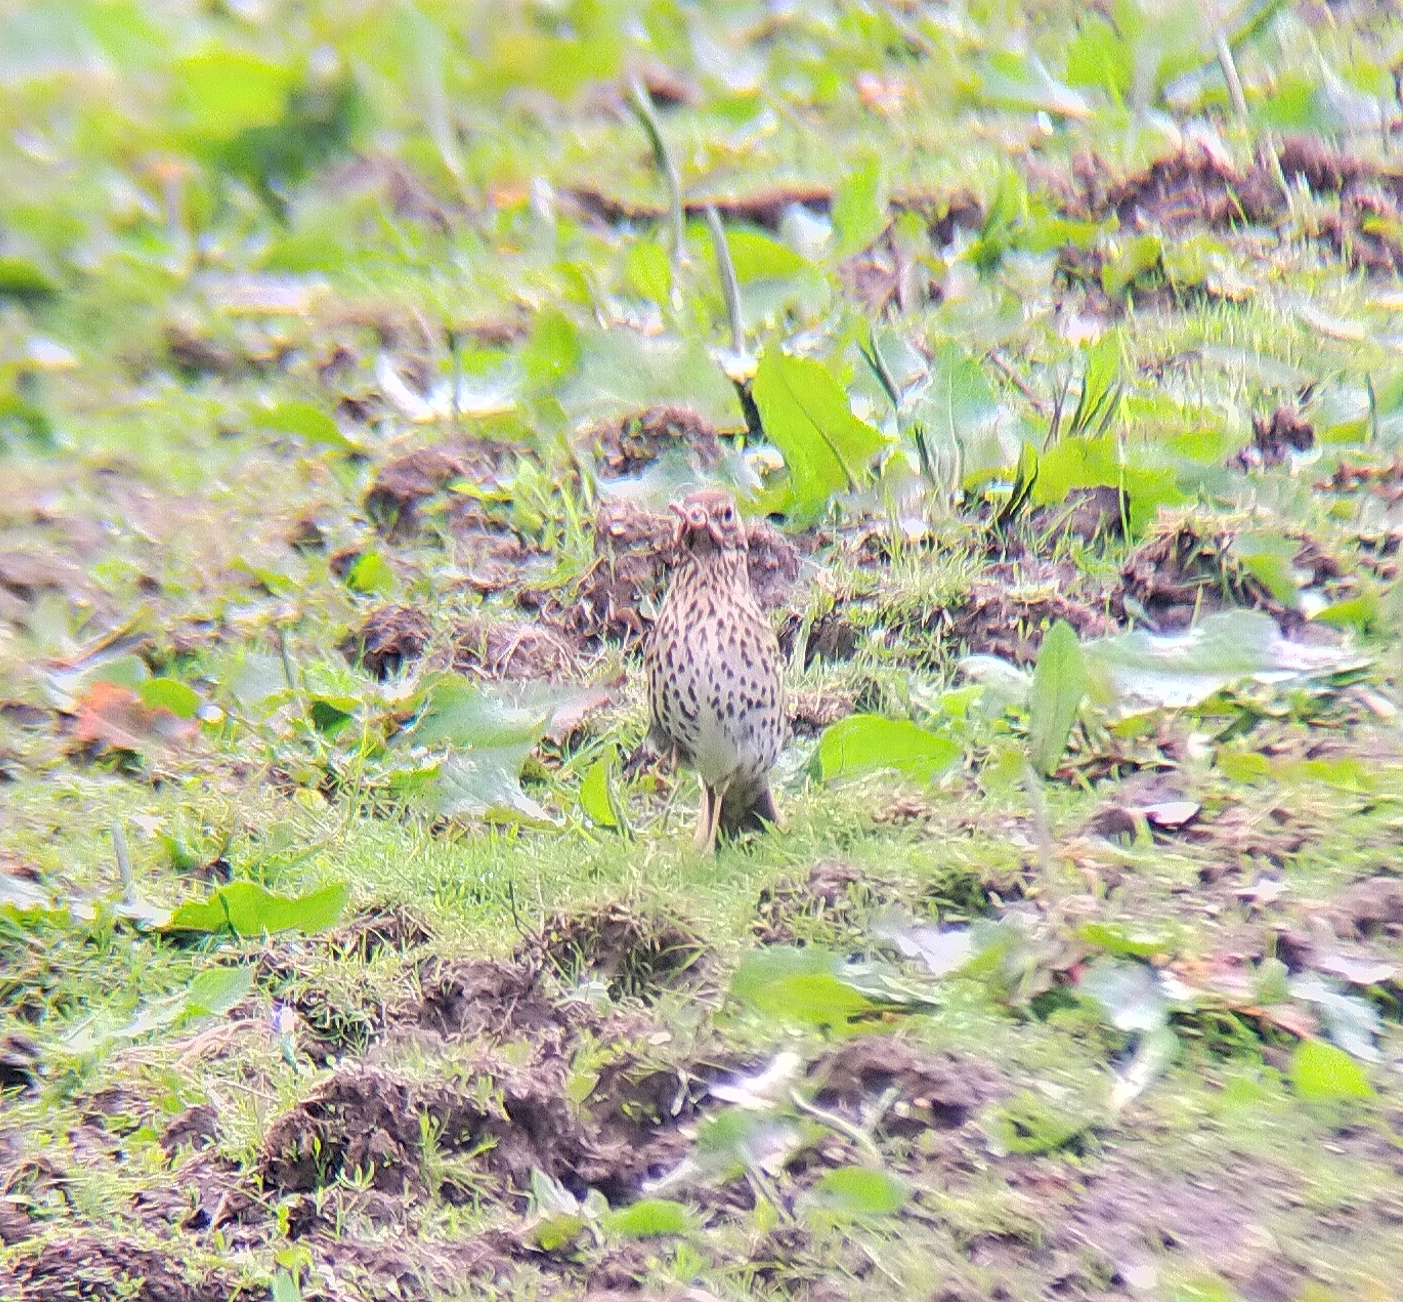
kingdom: Animalia
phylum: Chordata
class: Aves
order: Passeriformes
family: Turdidae
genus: Turdus
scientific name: Turdus philomelos
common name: Song thrush
